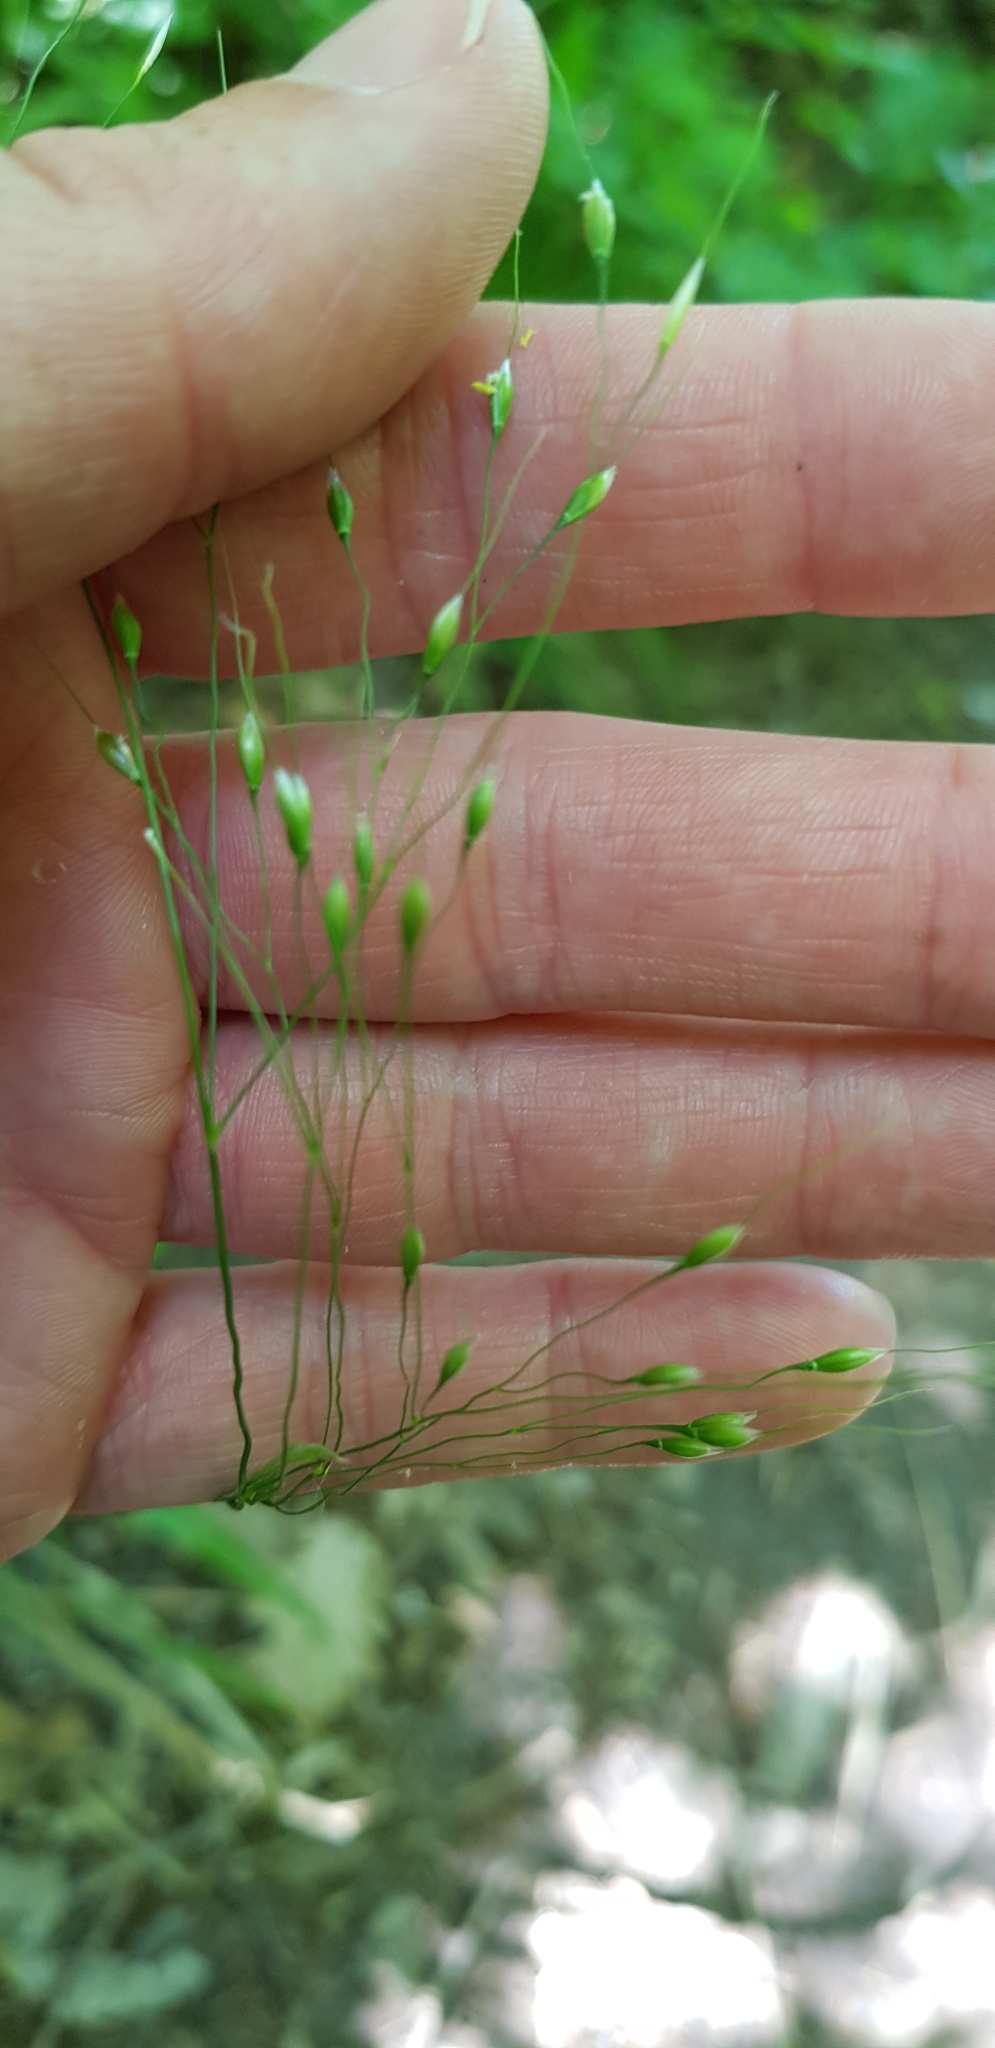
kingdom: Plantae
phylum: Tracheophyta
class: Liliopsida
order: Poales
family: Poaceae
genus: Achnatherum
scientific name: Achnatherum virescens
